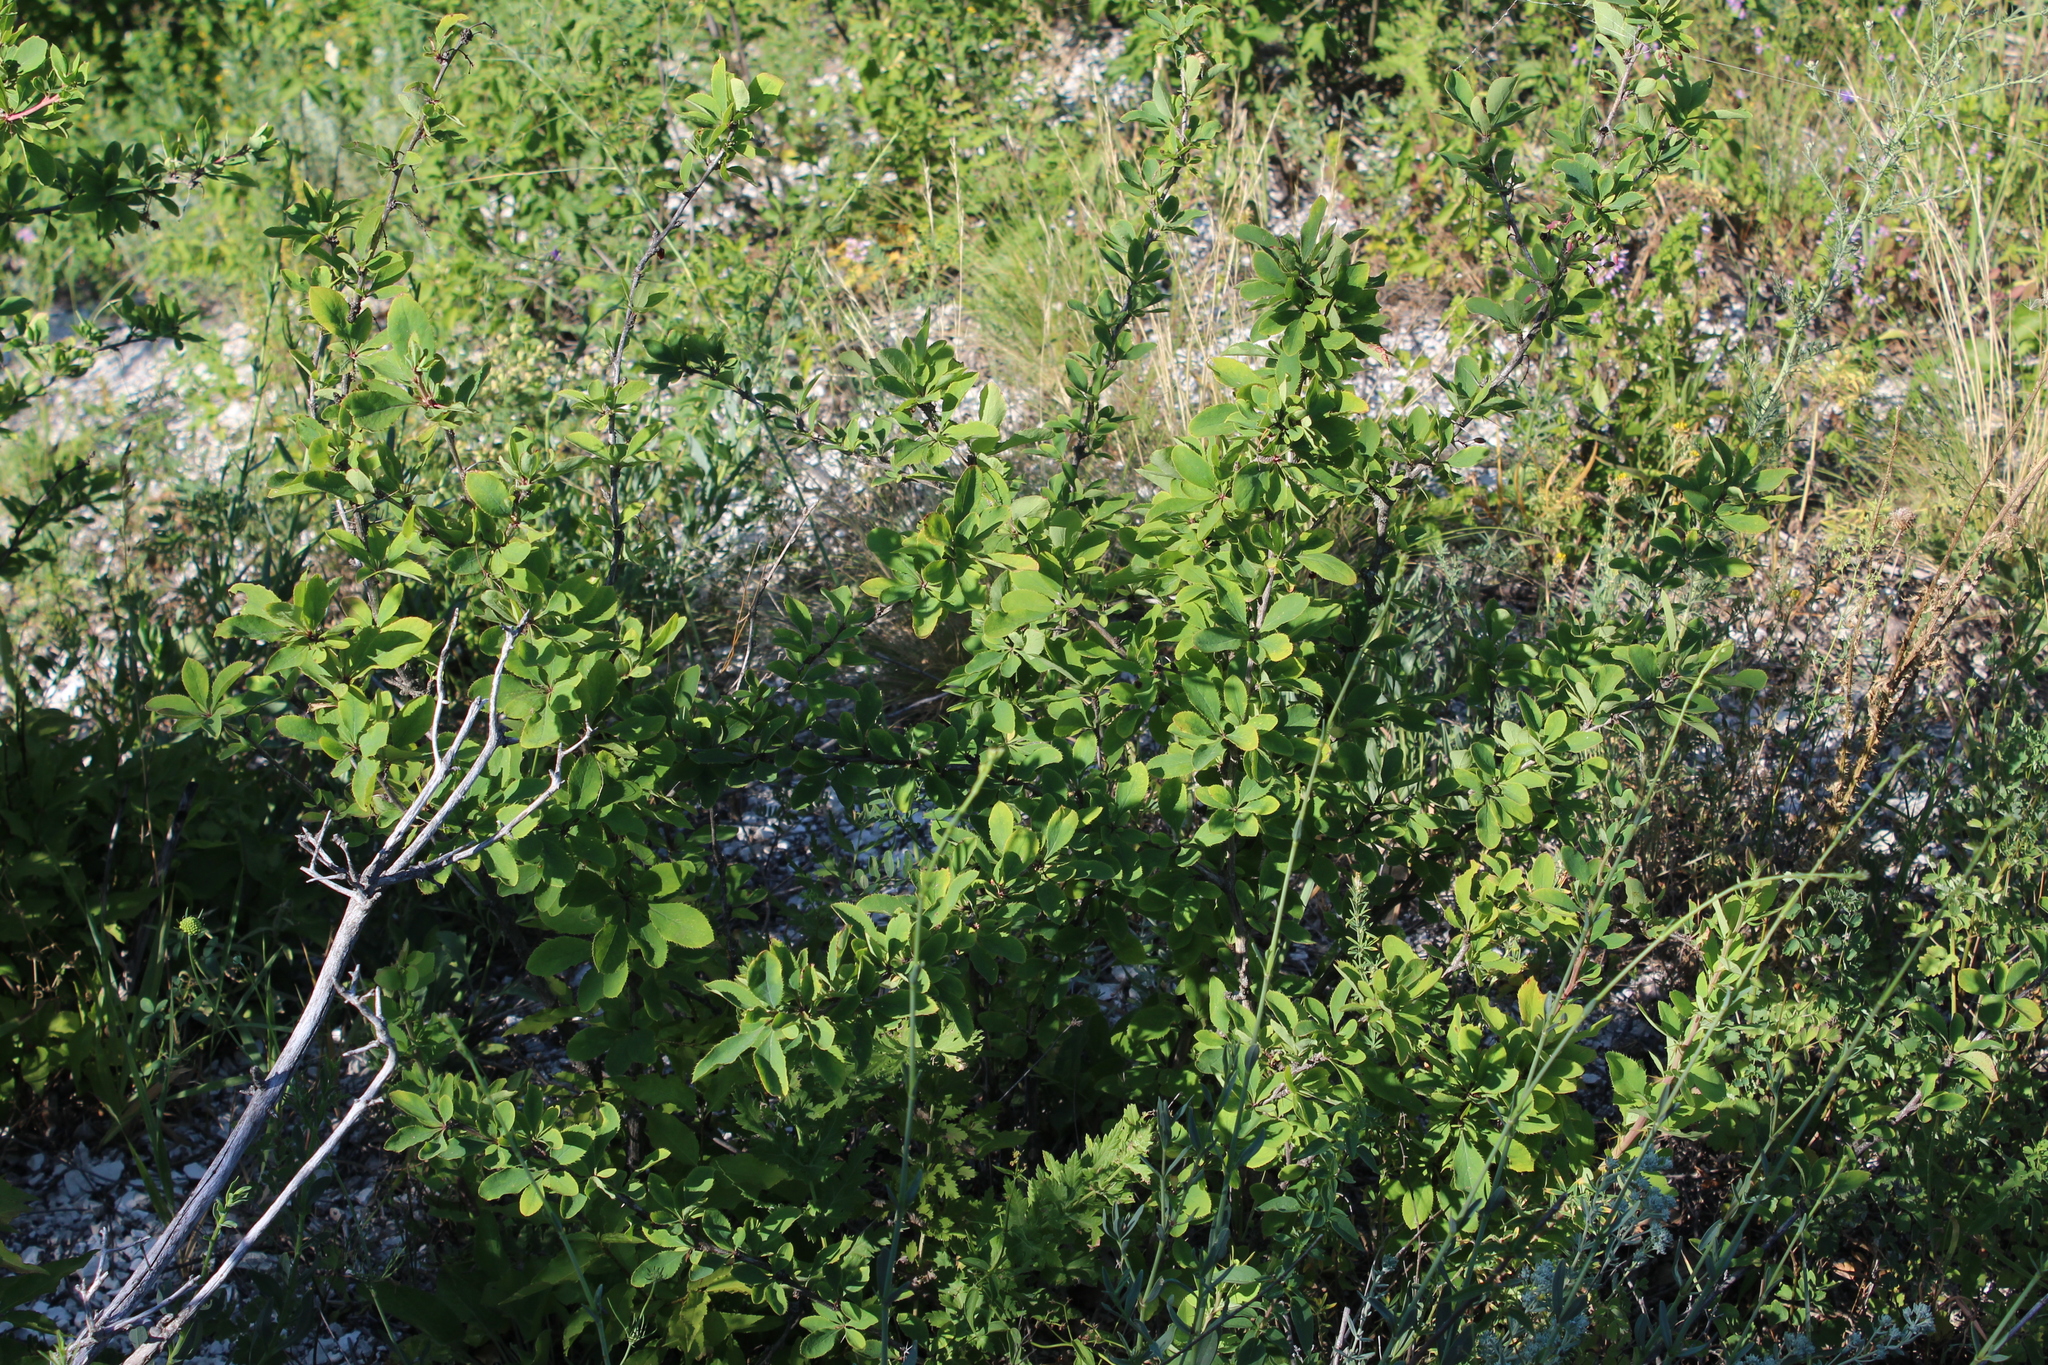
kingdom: Plantae
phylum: Tracheophyta
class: Magnoliopsida
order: Ranunculales
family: Berberidaceae
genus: Berberis
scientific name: Berberis vulgaris
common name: Barberry
